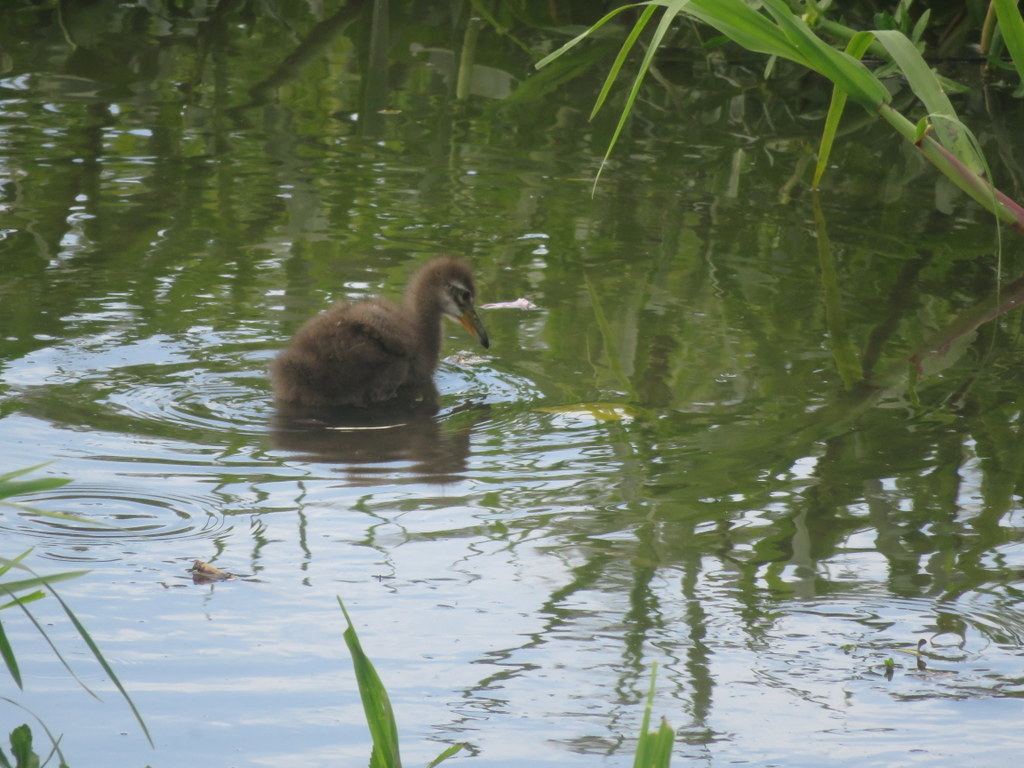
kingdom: Animalia
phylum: Chordata
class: Aves
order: Gruiformes
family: Aramidae
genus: Aramus
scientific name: Aramus guarauna
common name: Limpkin
